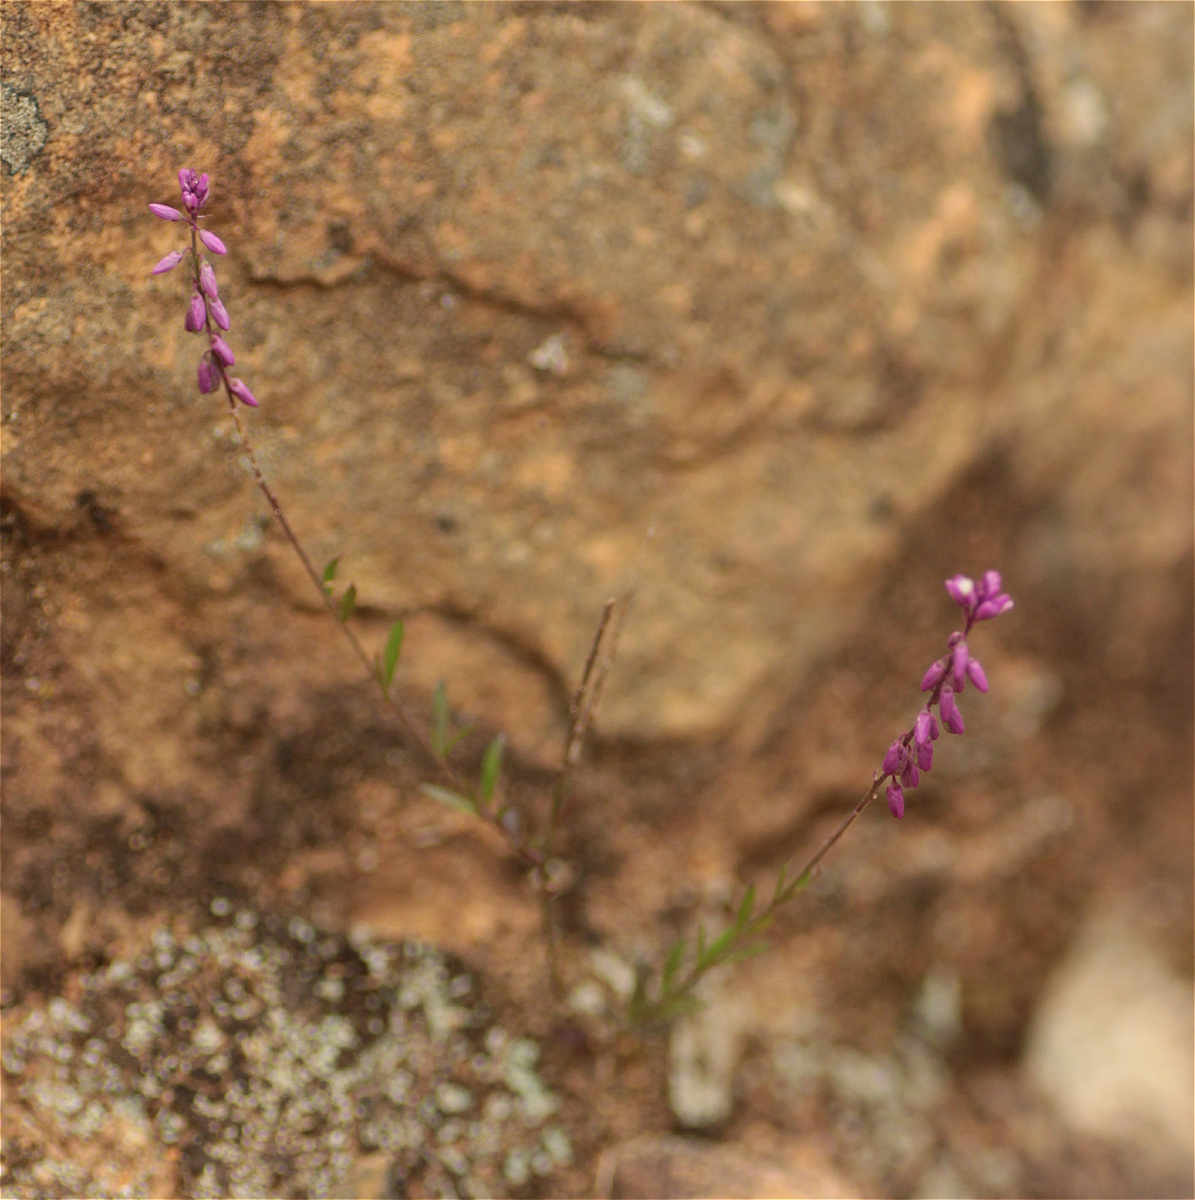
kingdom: Plantae
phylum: Tracheophyta
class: Magnoliopsida
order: Fabales
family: Polygalaceae
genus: Polygala
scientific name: Polygala paniculata
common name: Orosne
